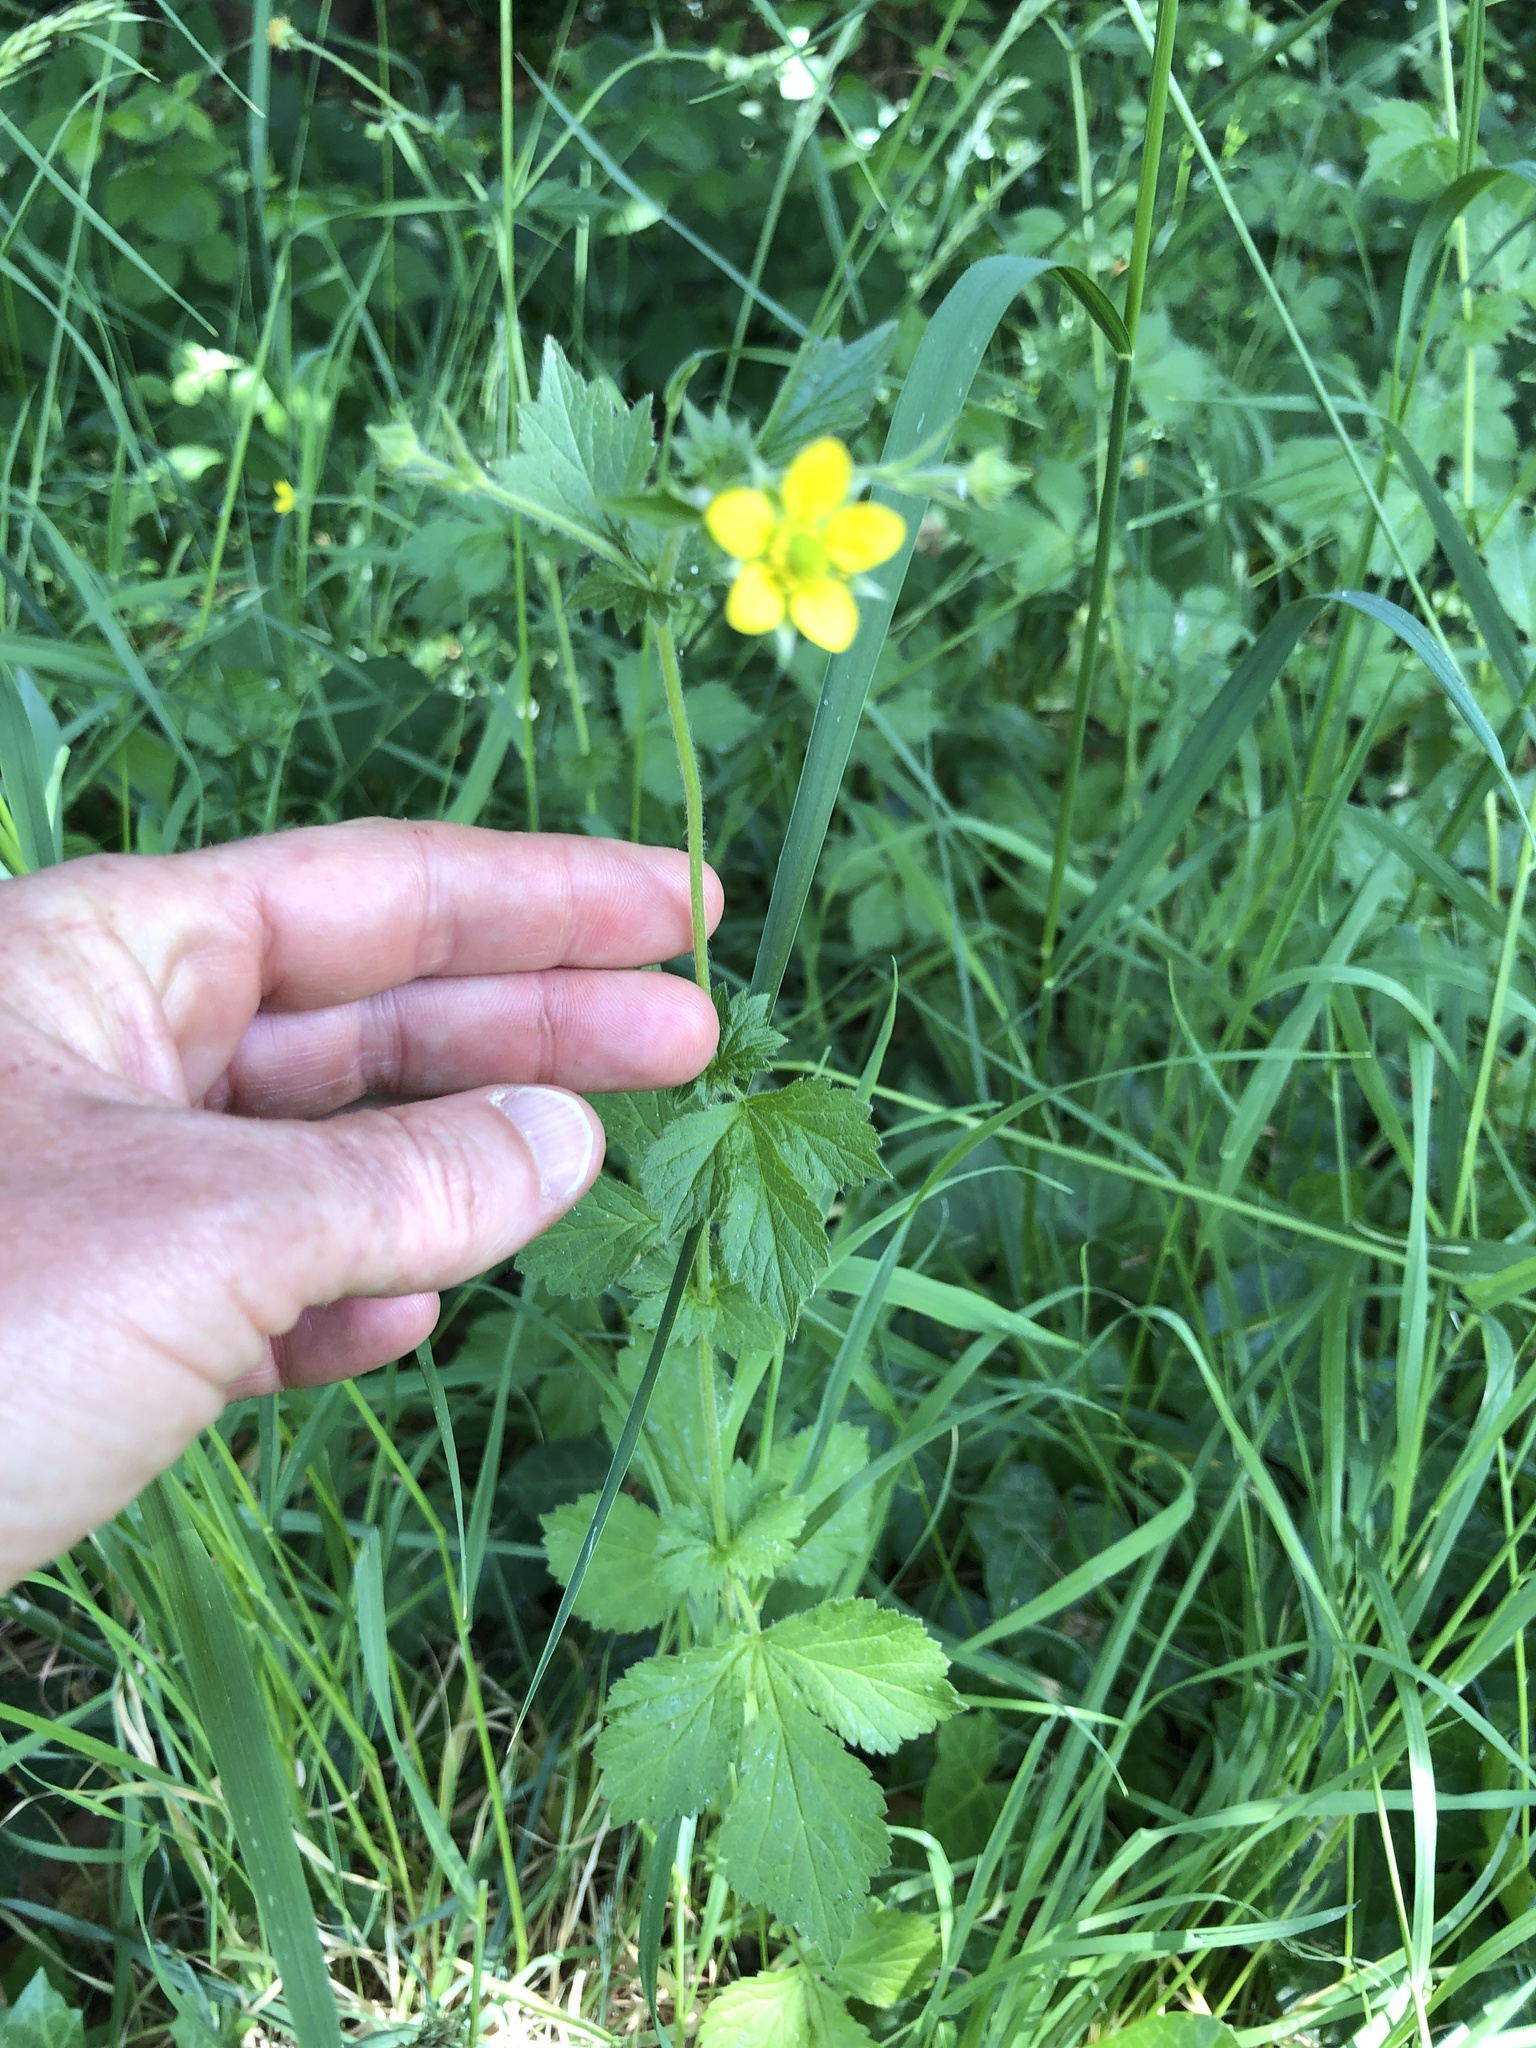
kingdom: Plantae
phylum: Tracheophyta
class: Magnoliopsida
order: Rosales
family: Rosaceae
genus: Geum
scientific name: Geum urbanum
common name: Wood avens
